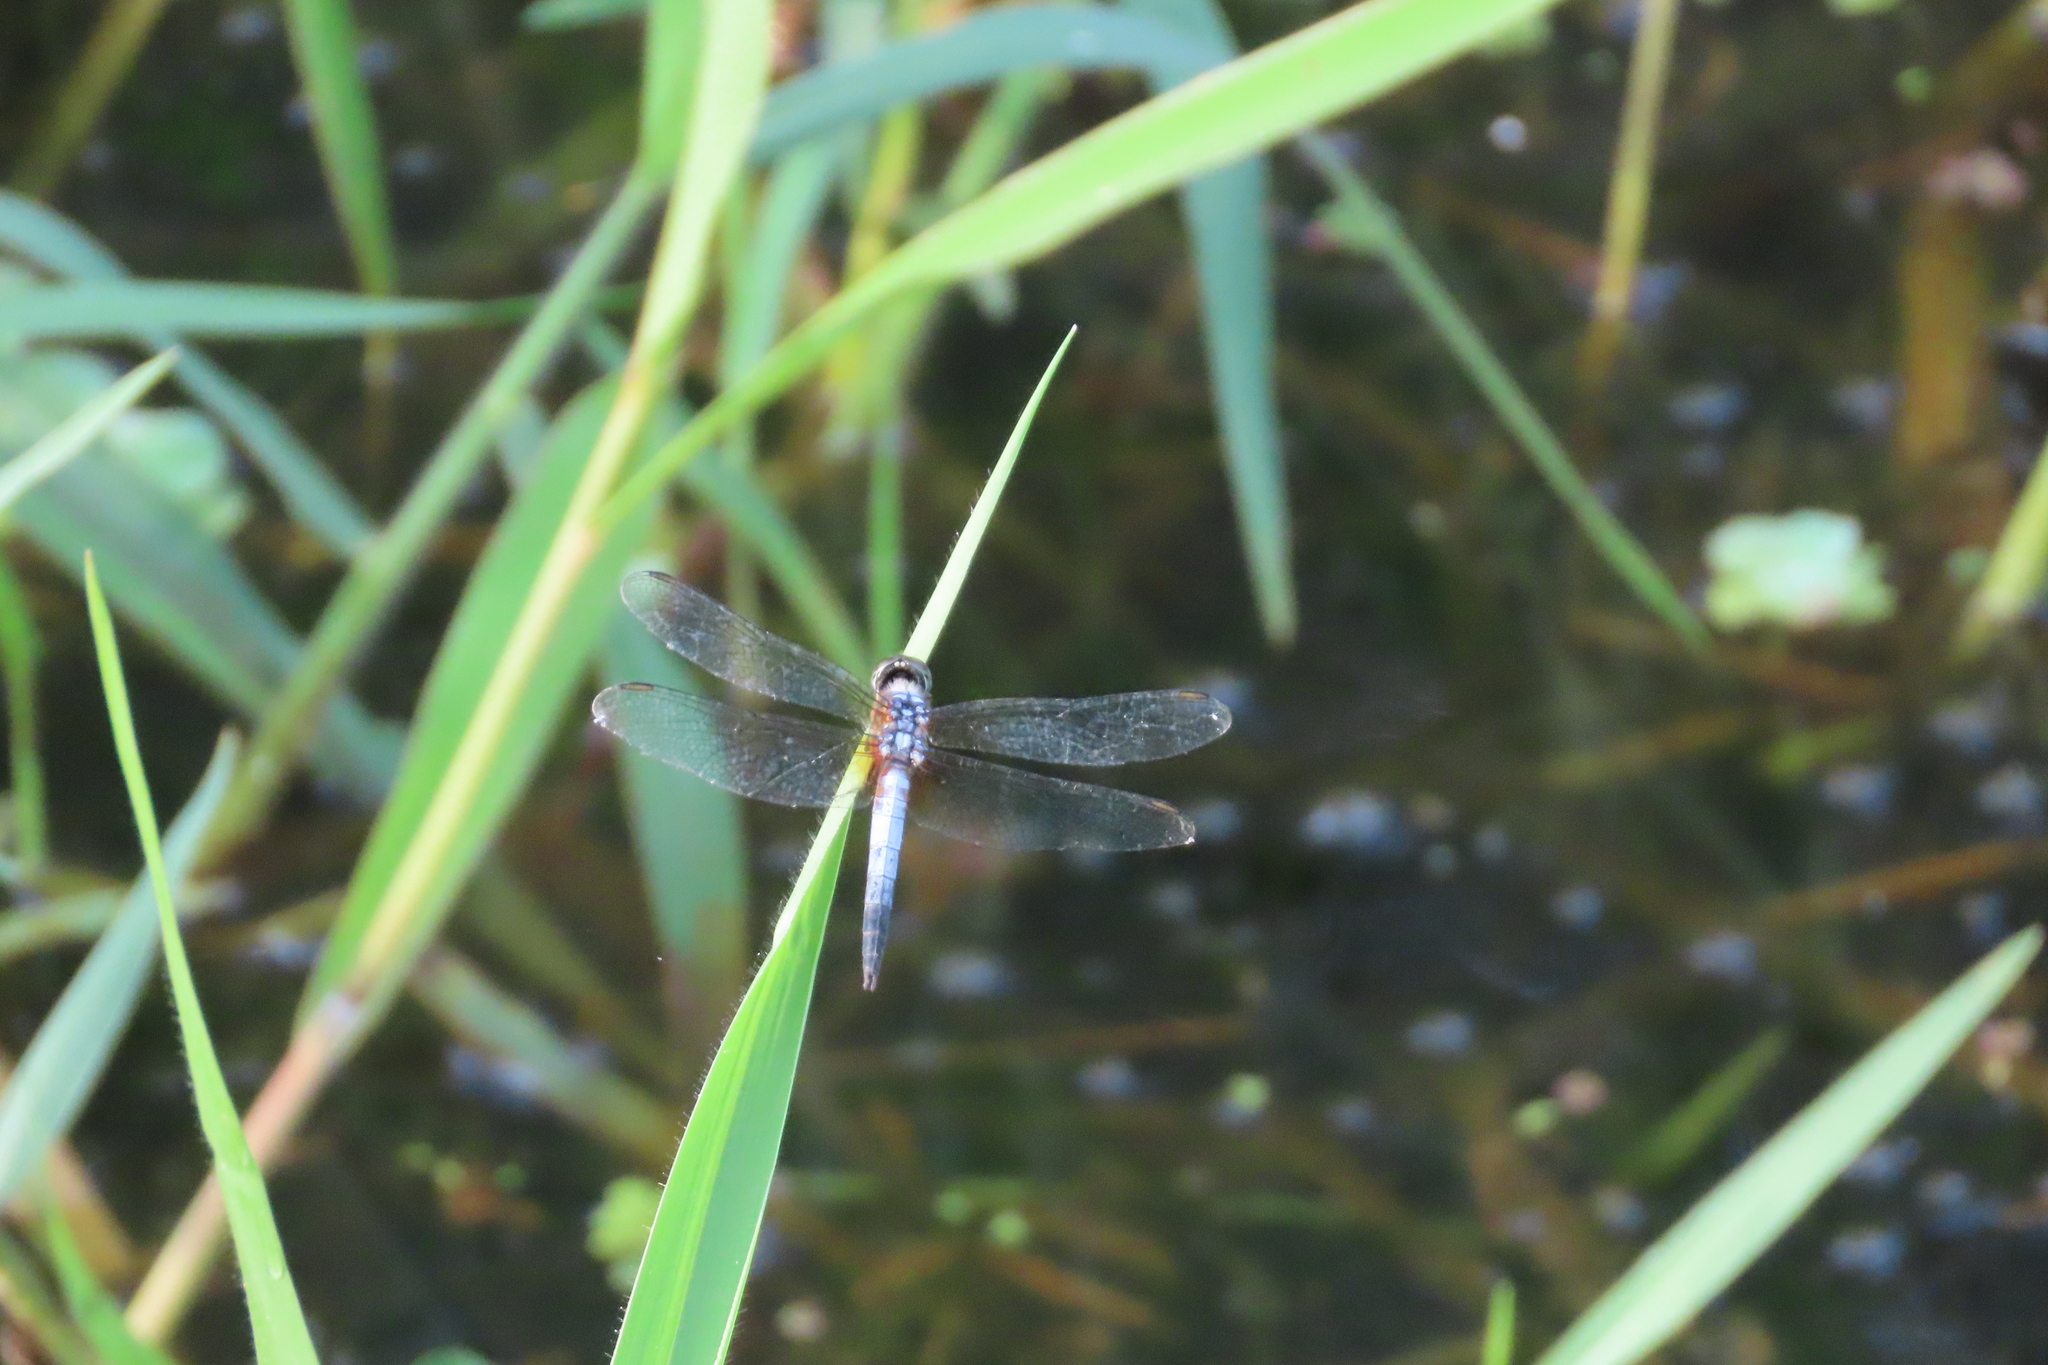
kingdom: Animalia
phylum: Arthropoda
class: Insecta
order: Odonata
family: Libellulidae
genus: Brachydiplax
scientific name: Brachydiplax chalybea
